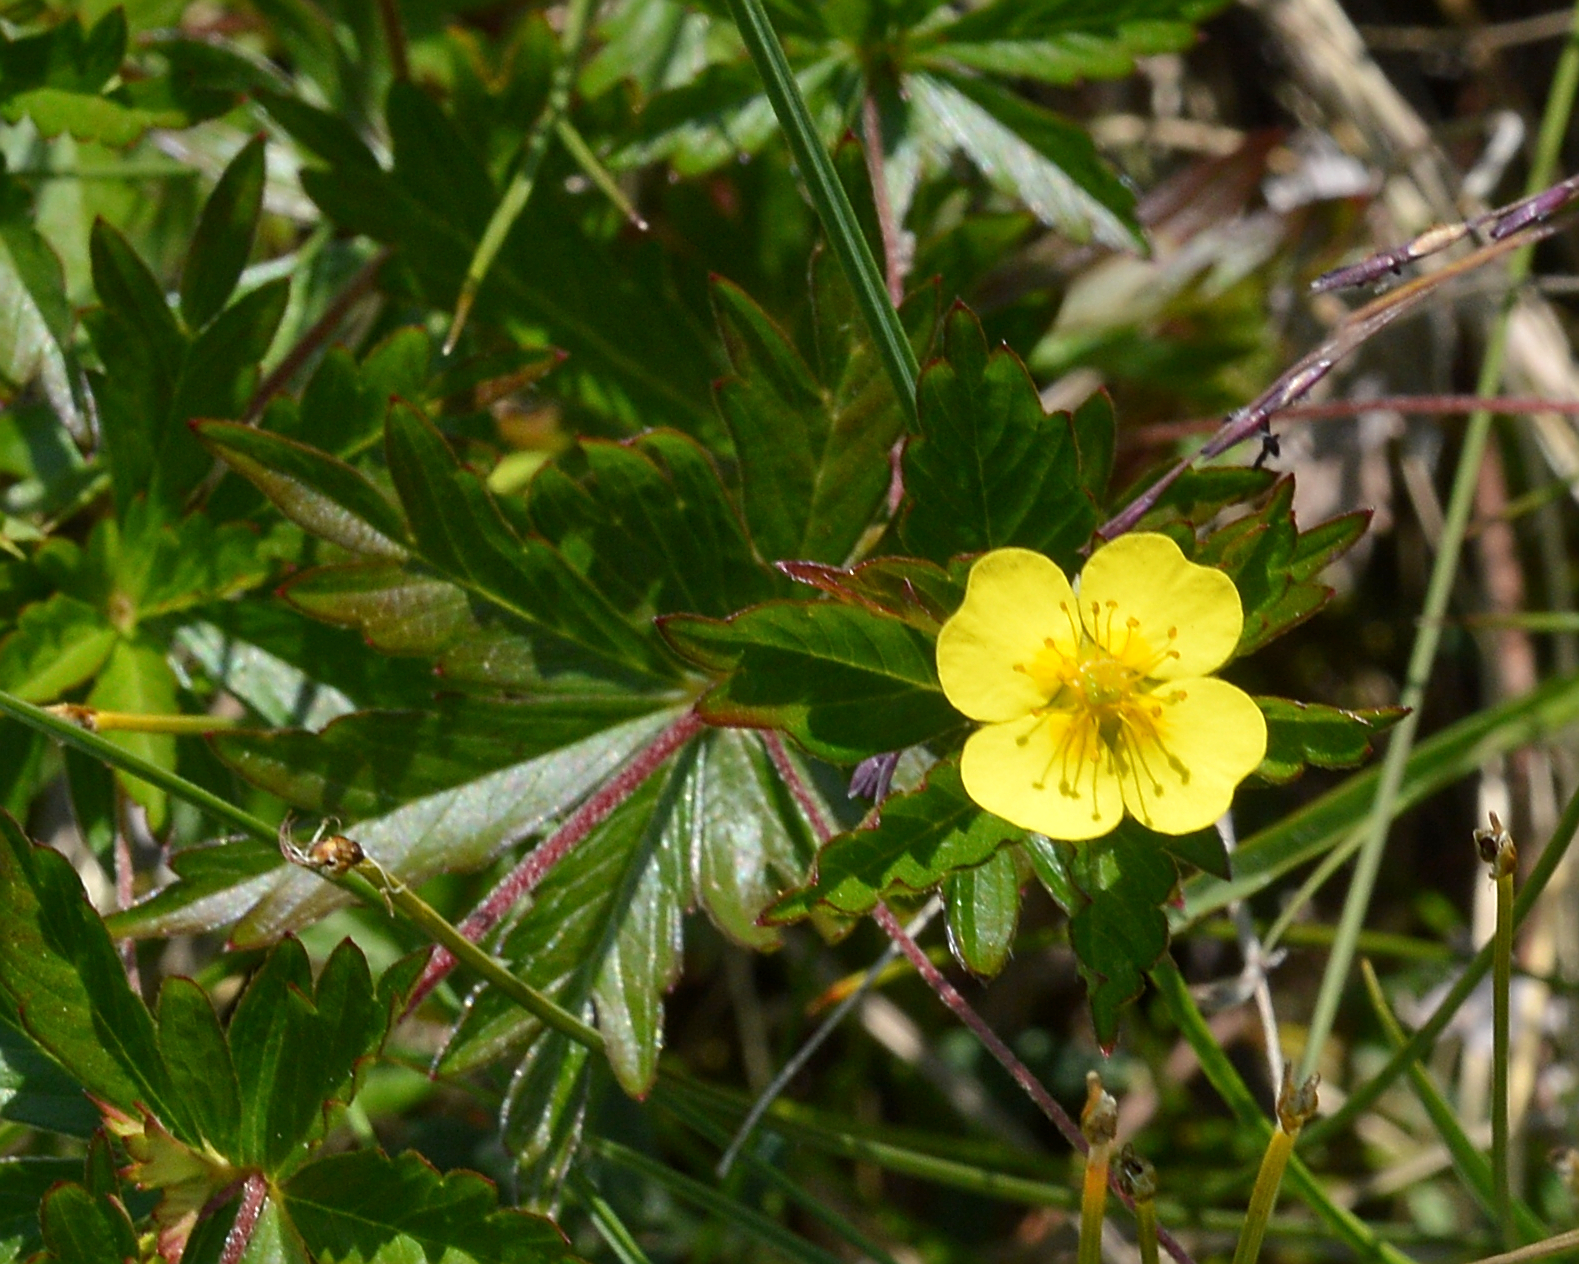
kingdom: Plantae
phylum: Tracheophyta
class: Magnoliopsida
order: Rosales
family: Rosaceae
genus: Potentilla
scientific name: Potentilla erecta
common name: Tormentil
